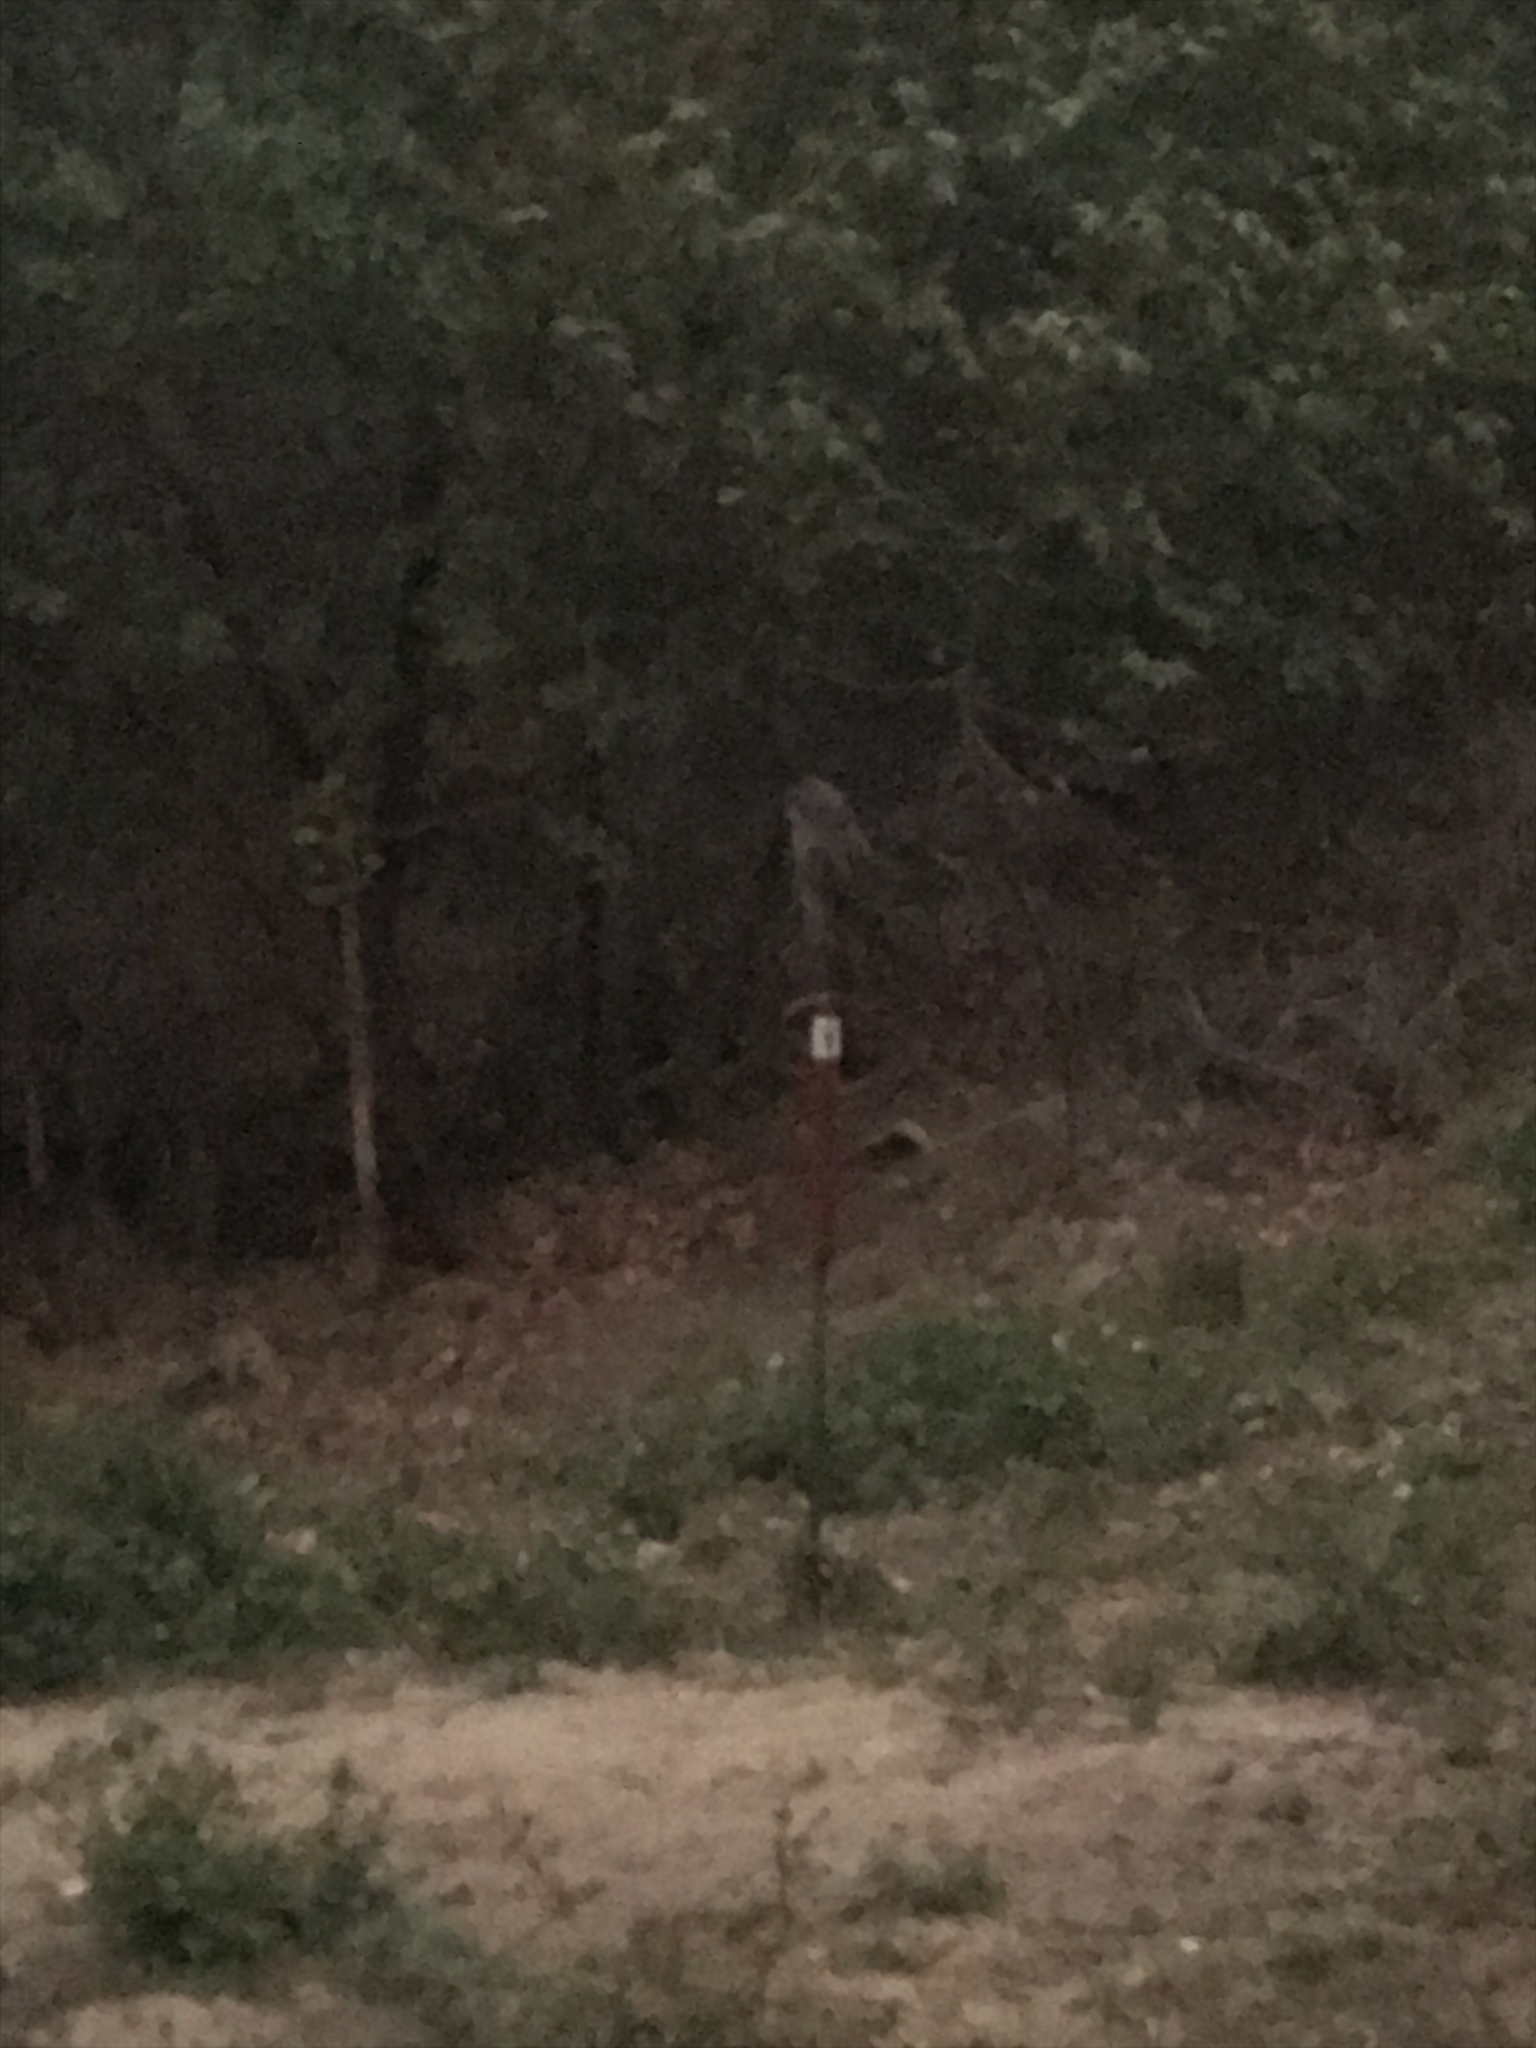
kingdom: Animalia
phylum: Chordata
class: Aves
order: Strigiformes
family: Strigidae
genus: Strix
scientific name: Strix nebulosa
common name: Great grey owl
